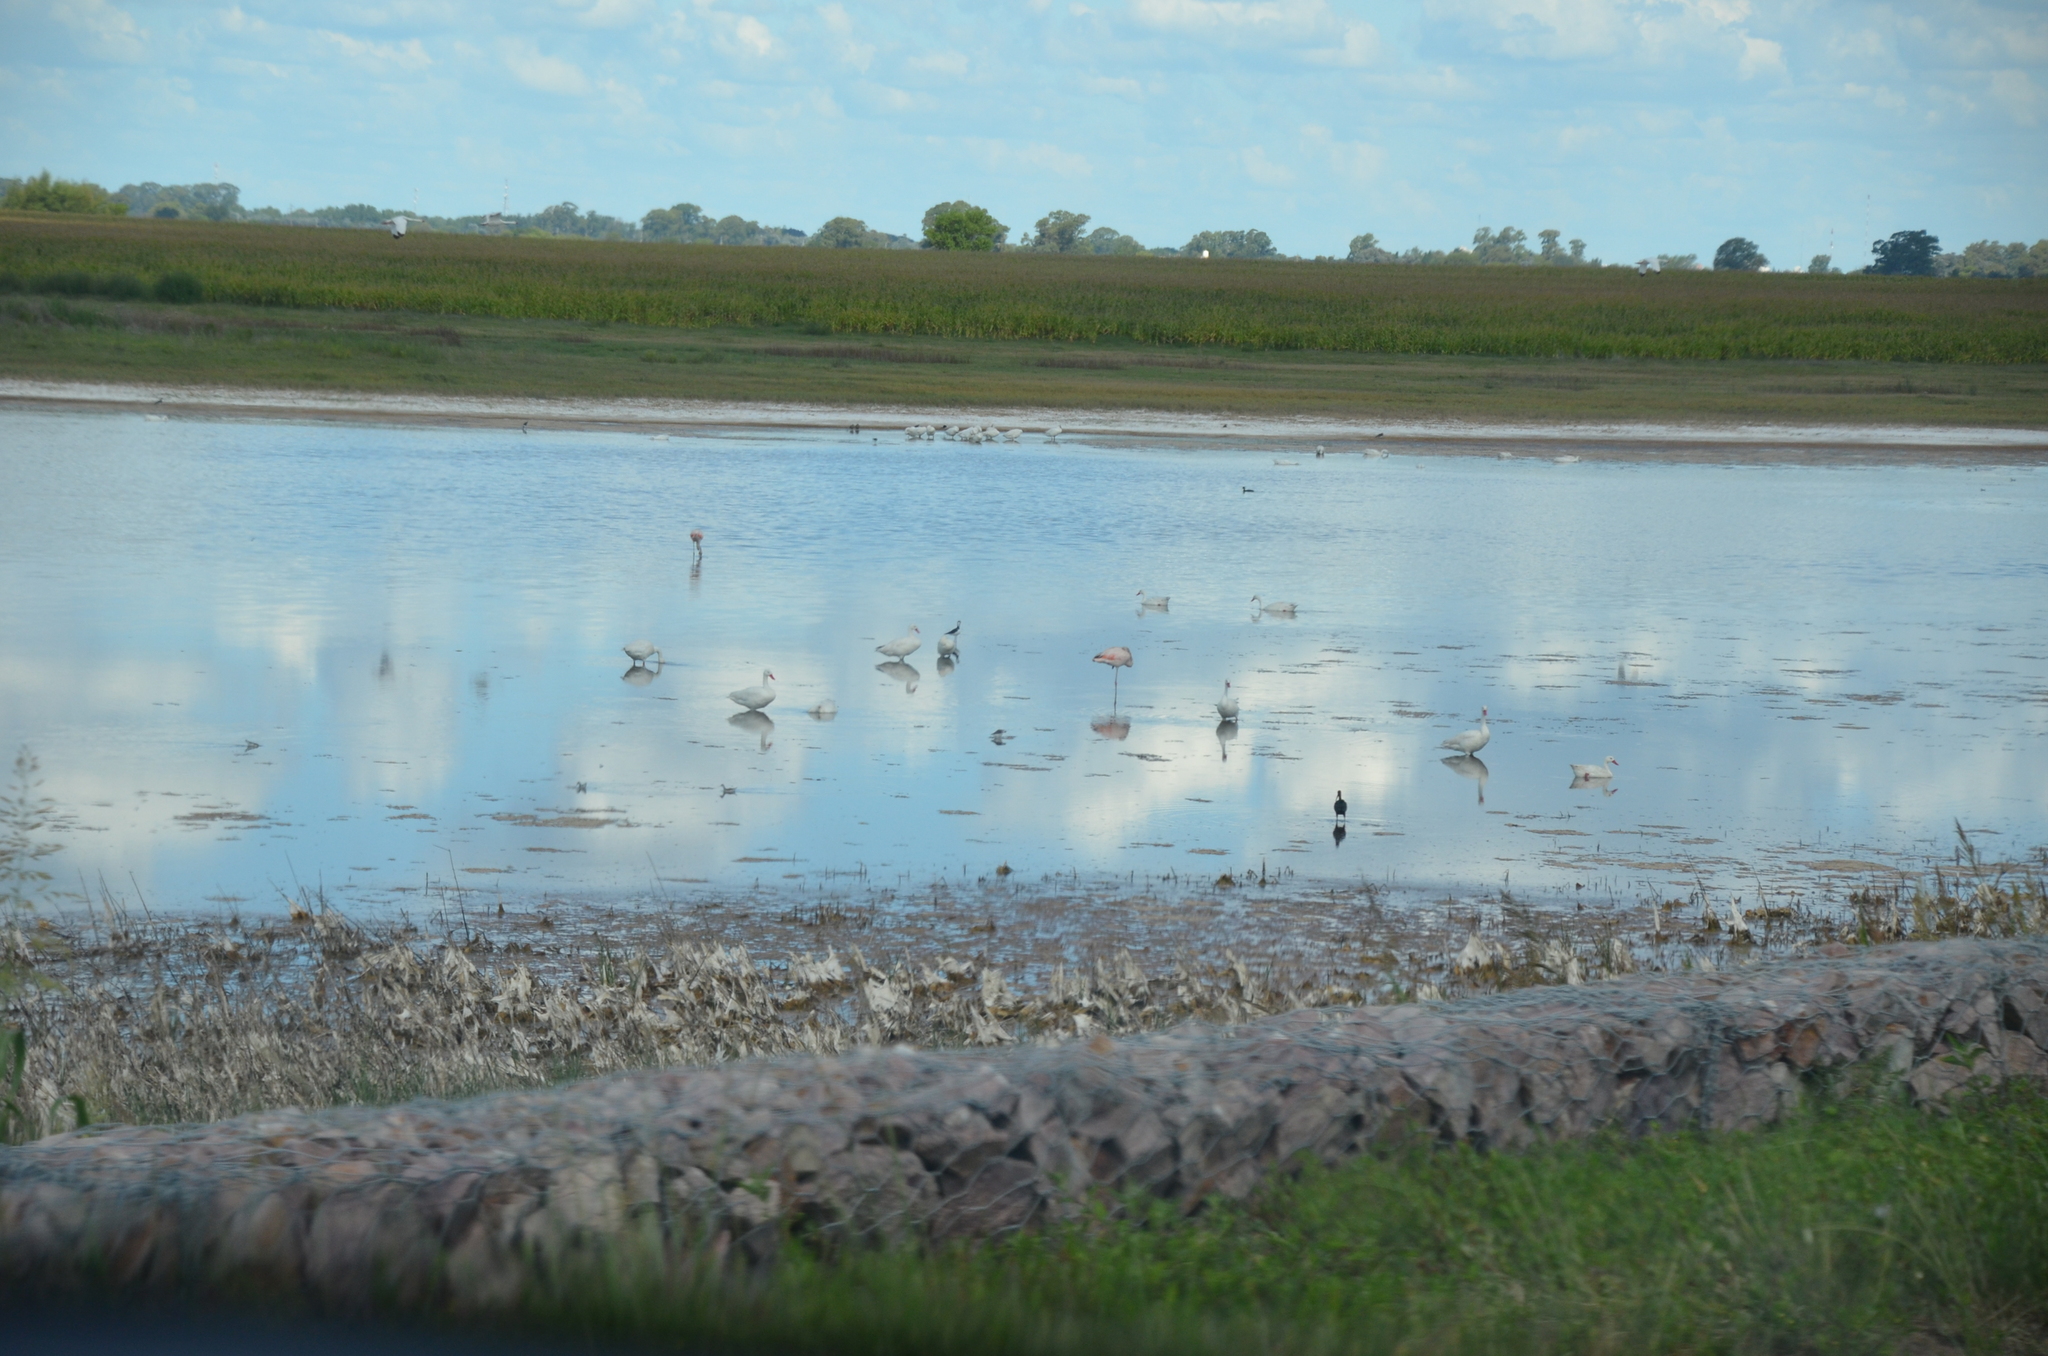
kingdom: Animalia
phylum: Chordata
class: Aves
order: Anseriformes
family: Anatidae
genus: Coscoroba
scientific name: Coscoroba coscoroba
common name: Coscoroba swan
